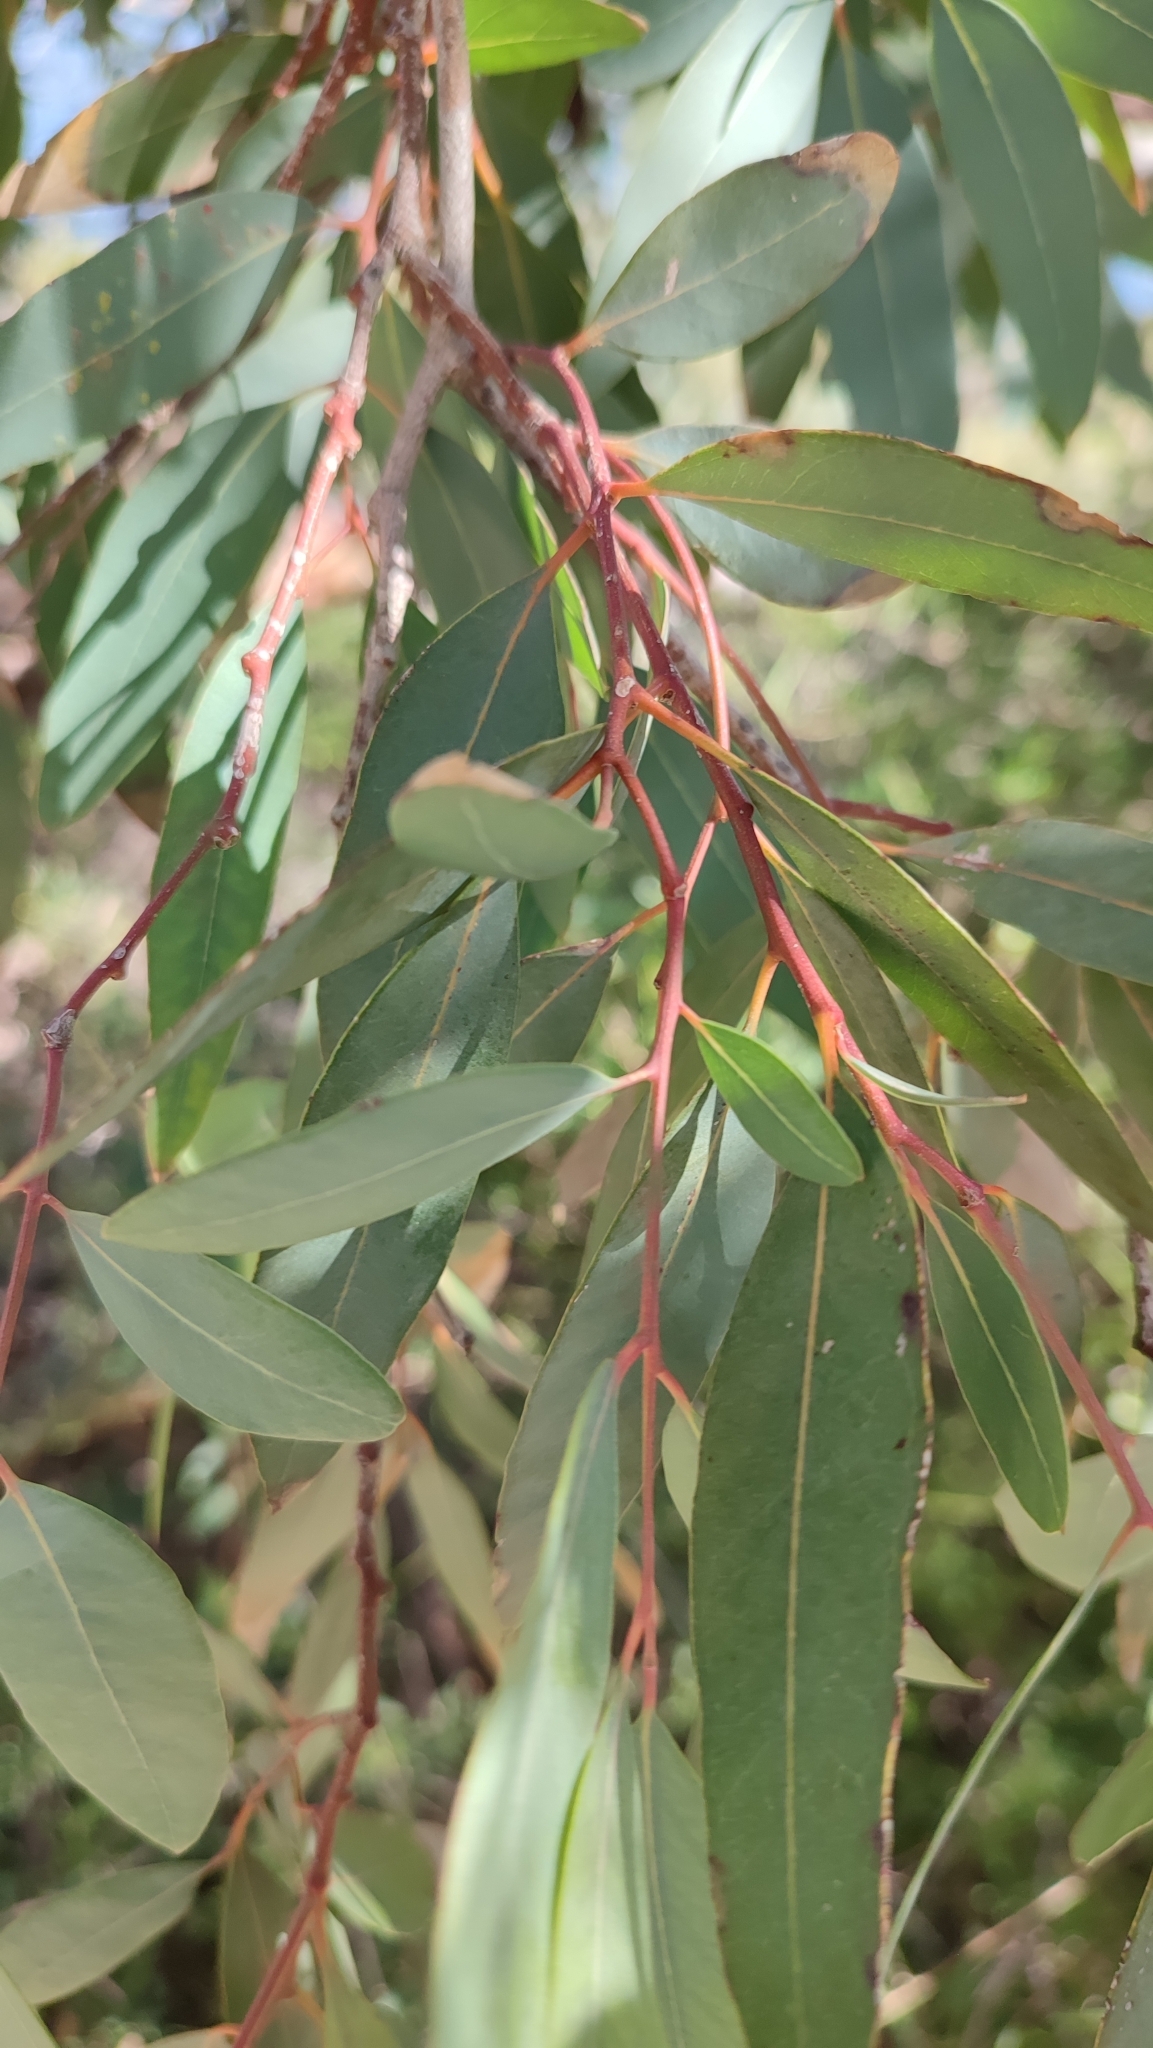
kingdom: Plantae
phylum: Tracheophyta
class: Magnoliopsida
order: Myrtales
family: Myrtaceae
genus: Eucalyptus
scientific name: Eucalyptus camaldulensis
